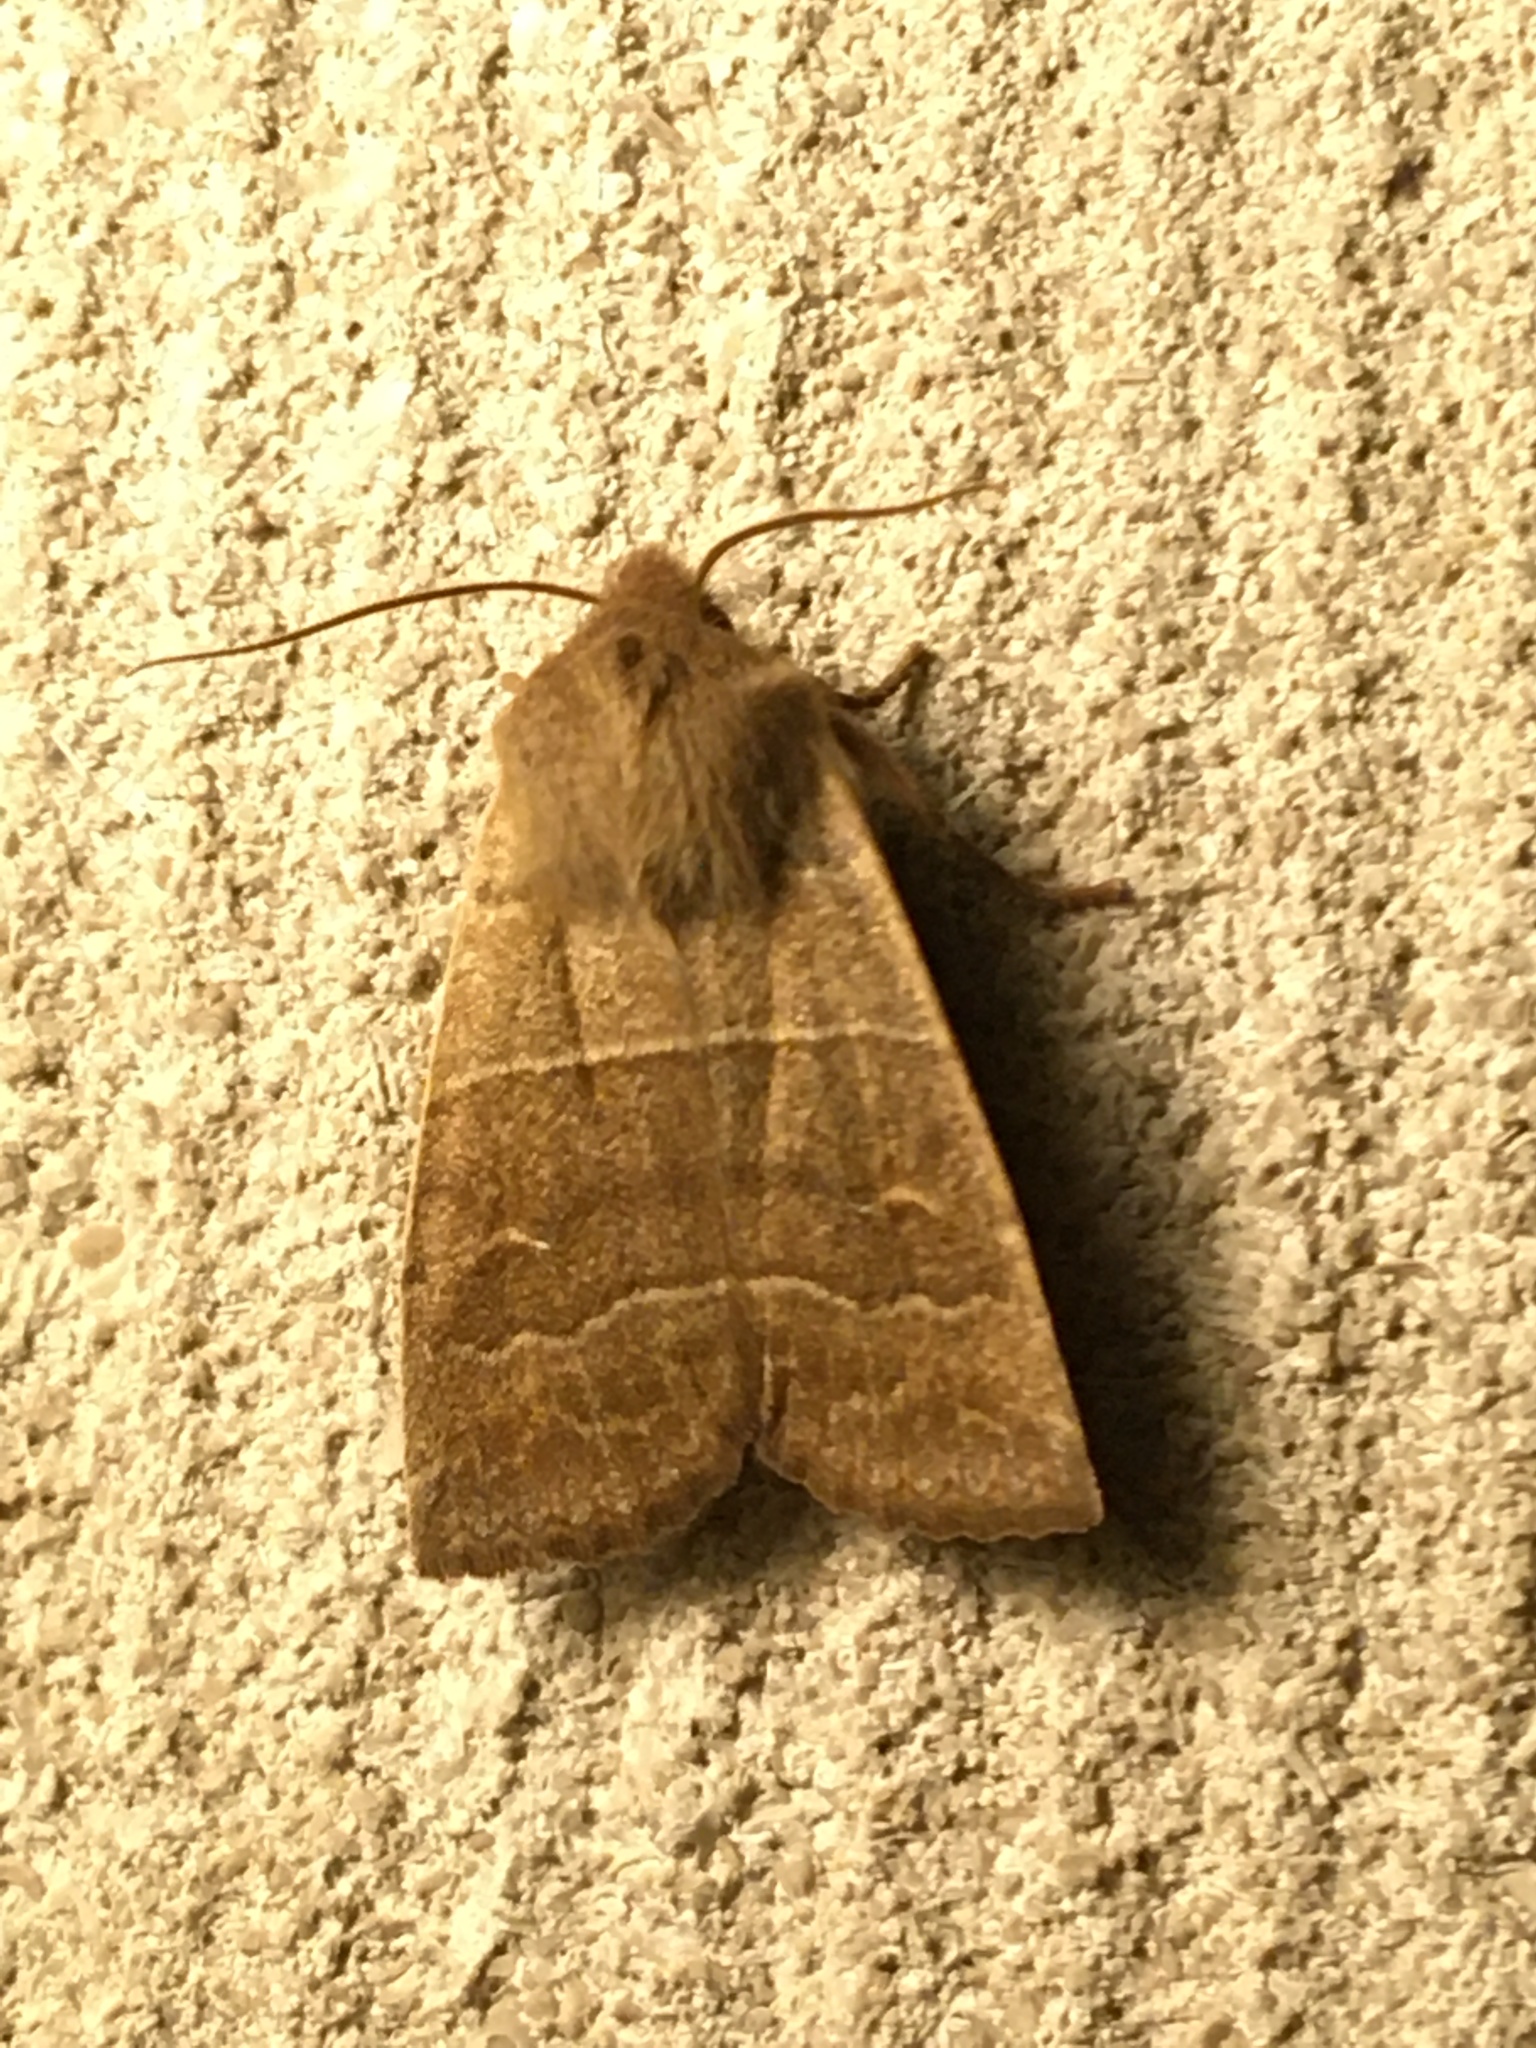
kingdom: Animalia
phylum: Arthropoda
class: Insecta
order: Lepidoptera
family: Noctuidae
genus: Eupsilia
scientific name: Eupsilia morrisoni
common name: Morrison's sallow
